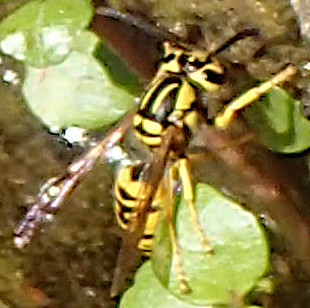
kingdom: Animalia
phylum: Arthropoda
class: Insecta
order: Hymenoptera
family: Vespidae
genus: Vespula
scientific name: Vespula sulphurea
